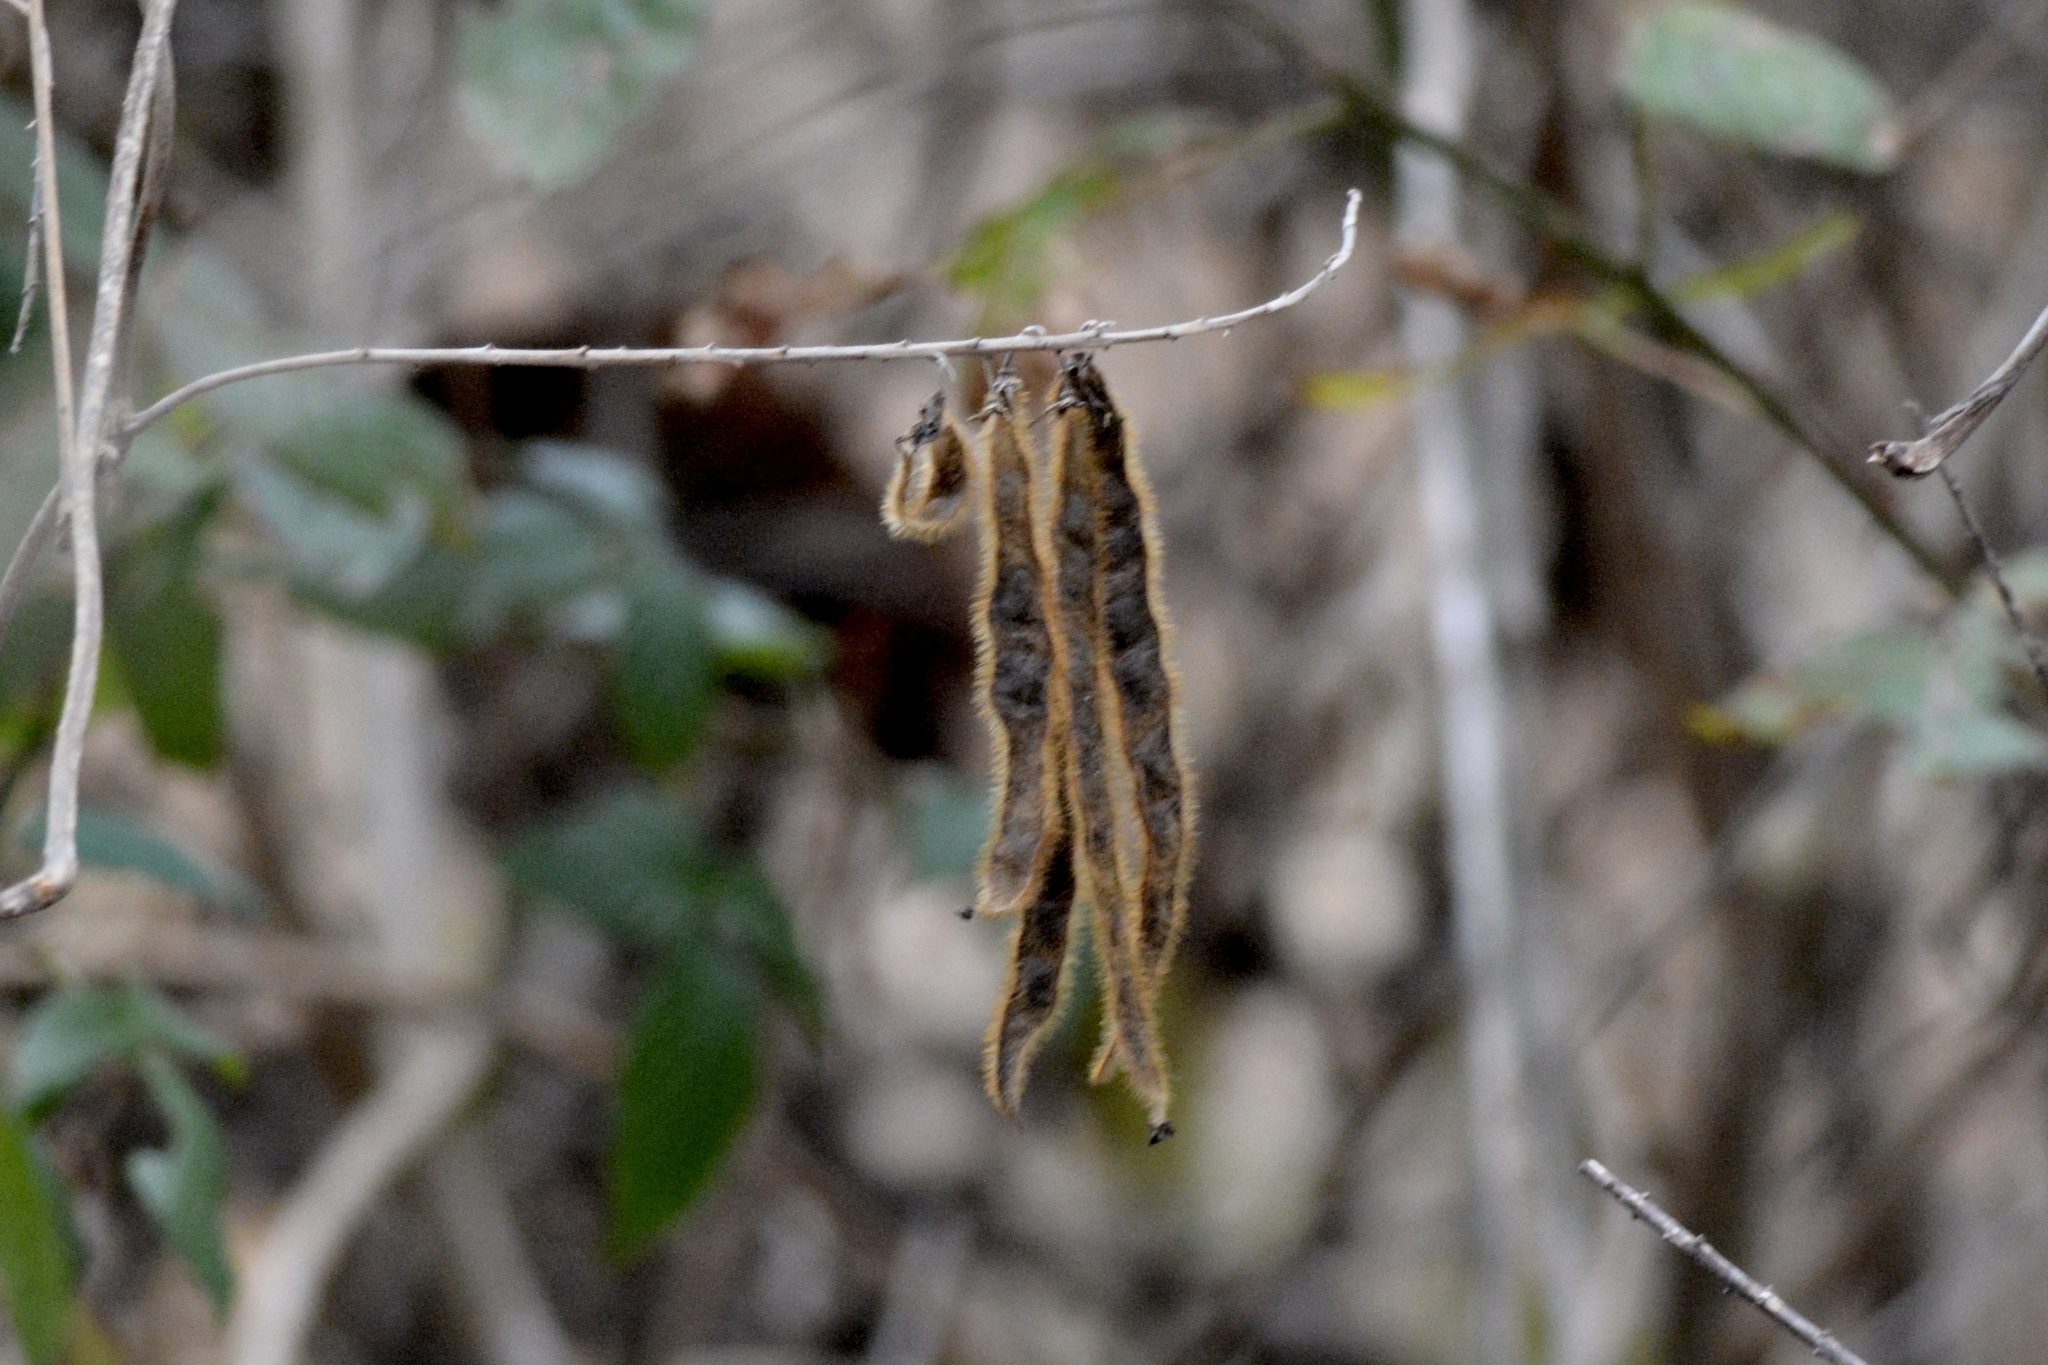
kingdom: Plantae
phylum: Tracheophyta
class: Magnoliopsida
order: Fabales
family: Fabaceae
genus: Pueraria
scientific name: Pueraria montana
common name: Kudzu
